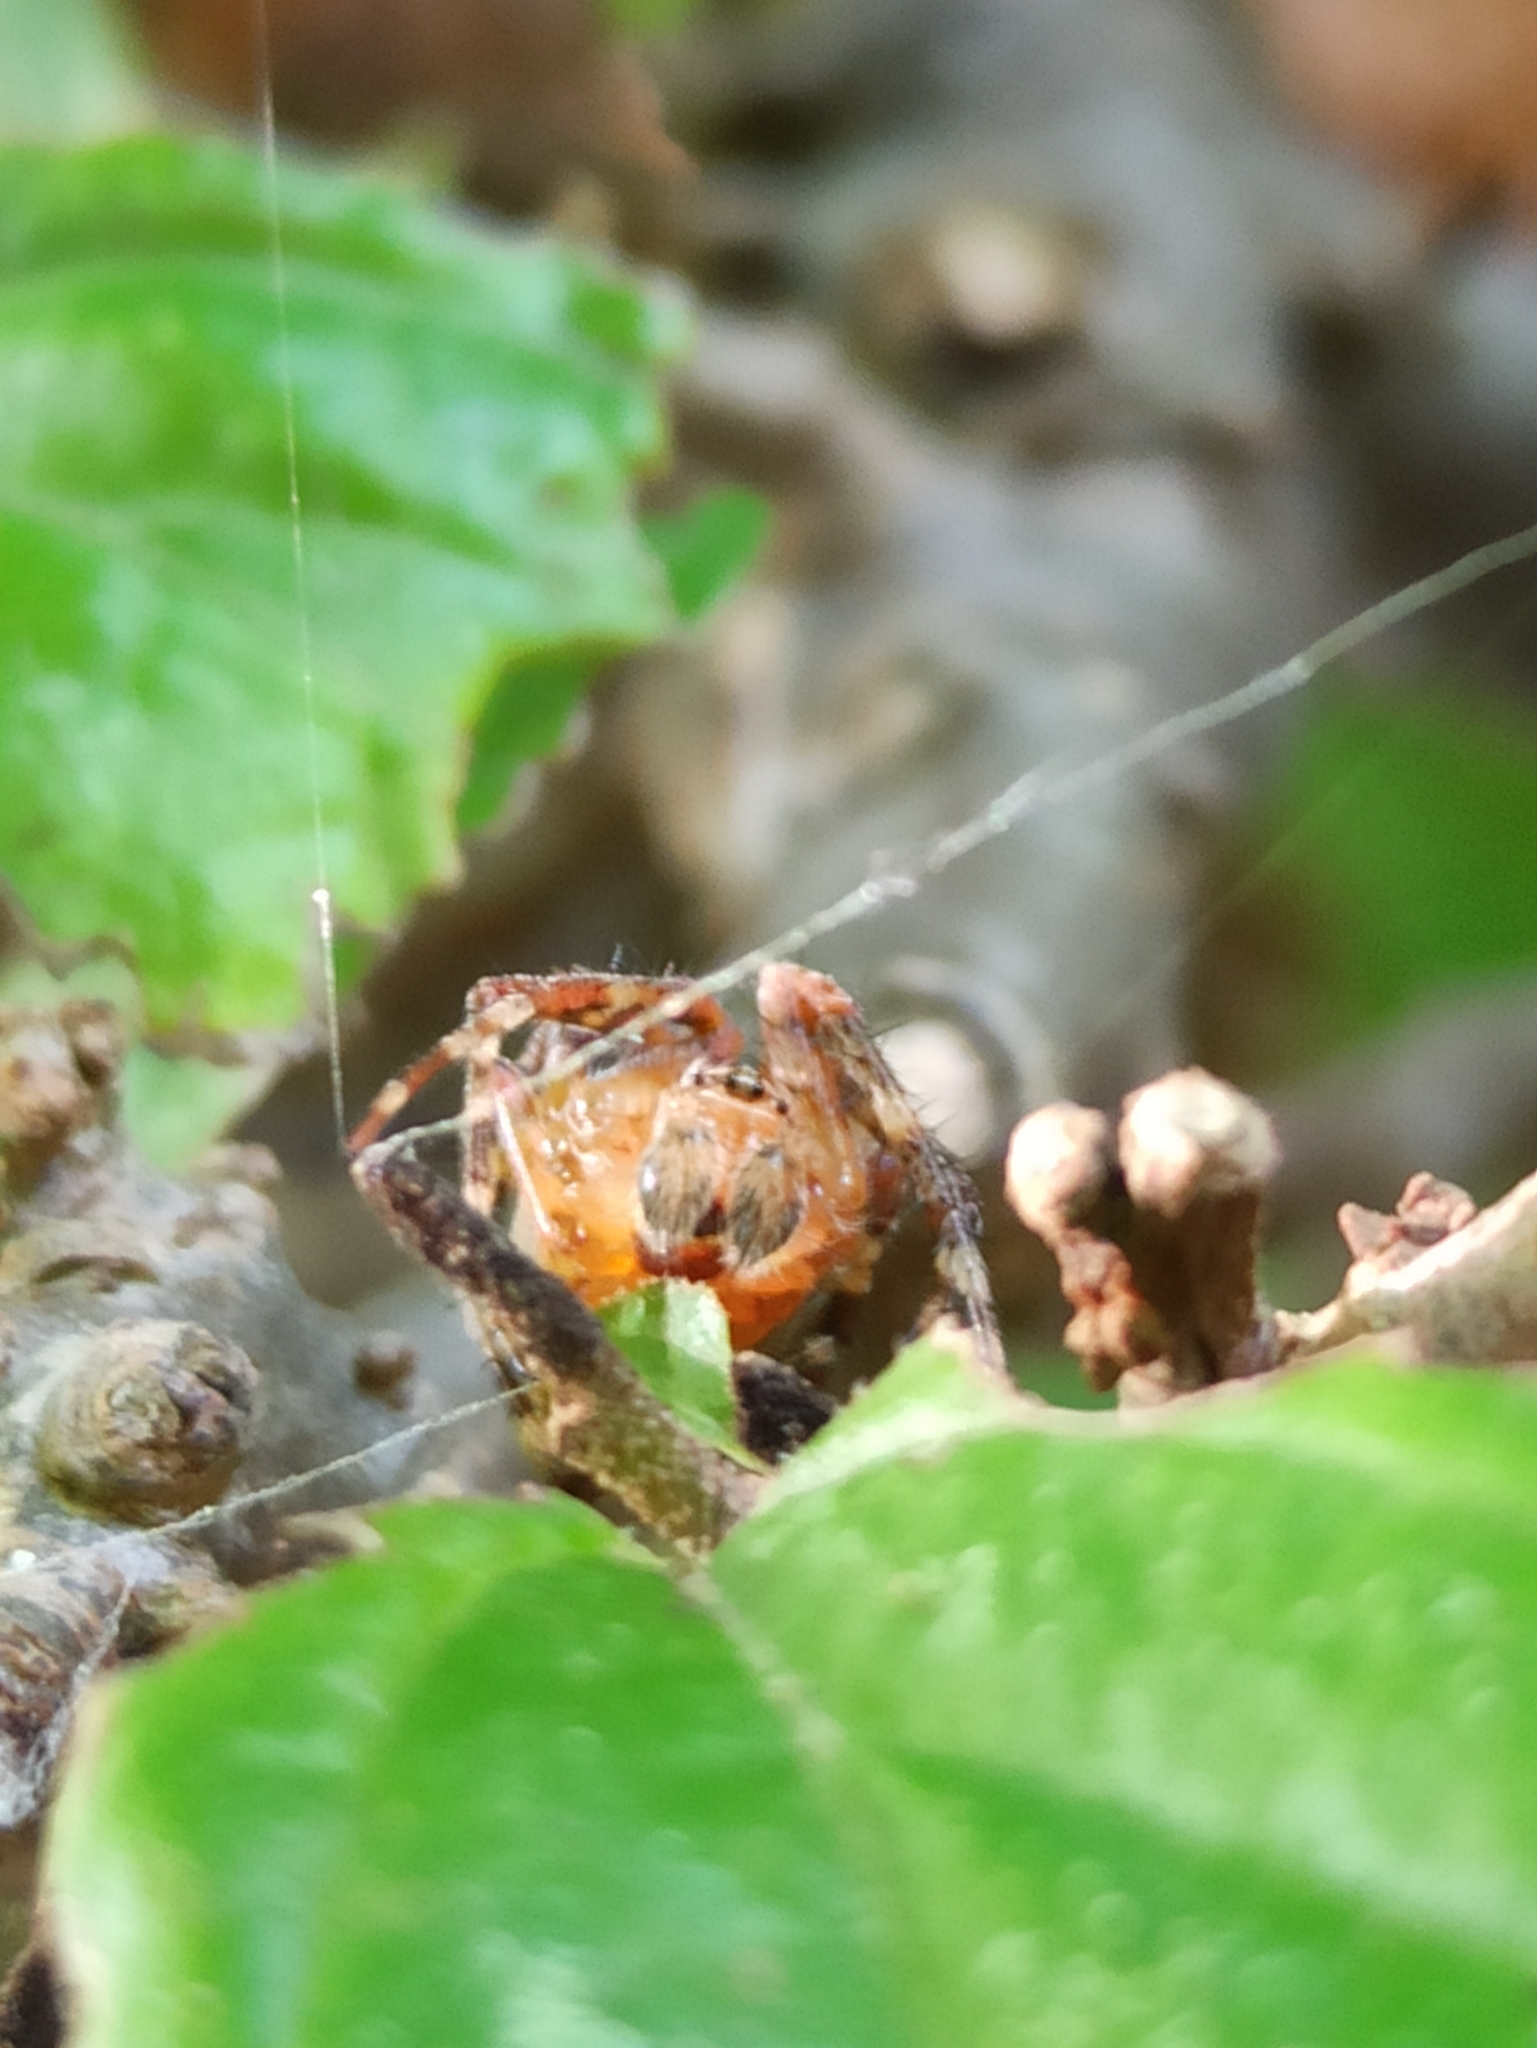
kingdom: Animalia
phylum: Arthropoda
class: Arachnida
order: Araneae
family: Araneidae
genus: Araneus
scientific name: Araneus marmoreus
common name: Marbled orbweaver
